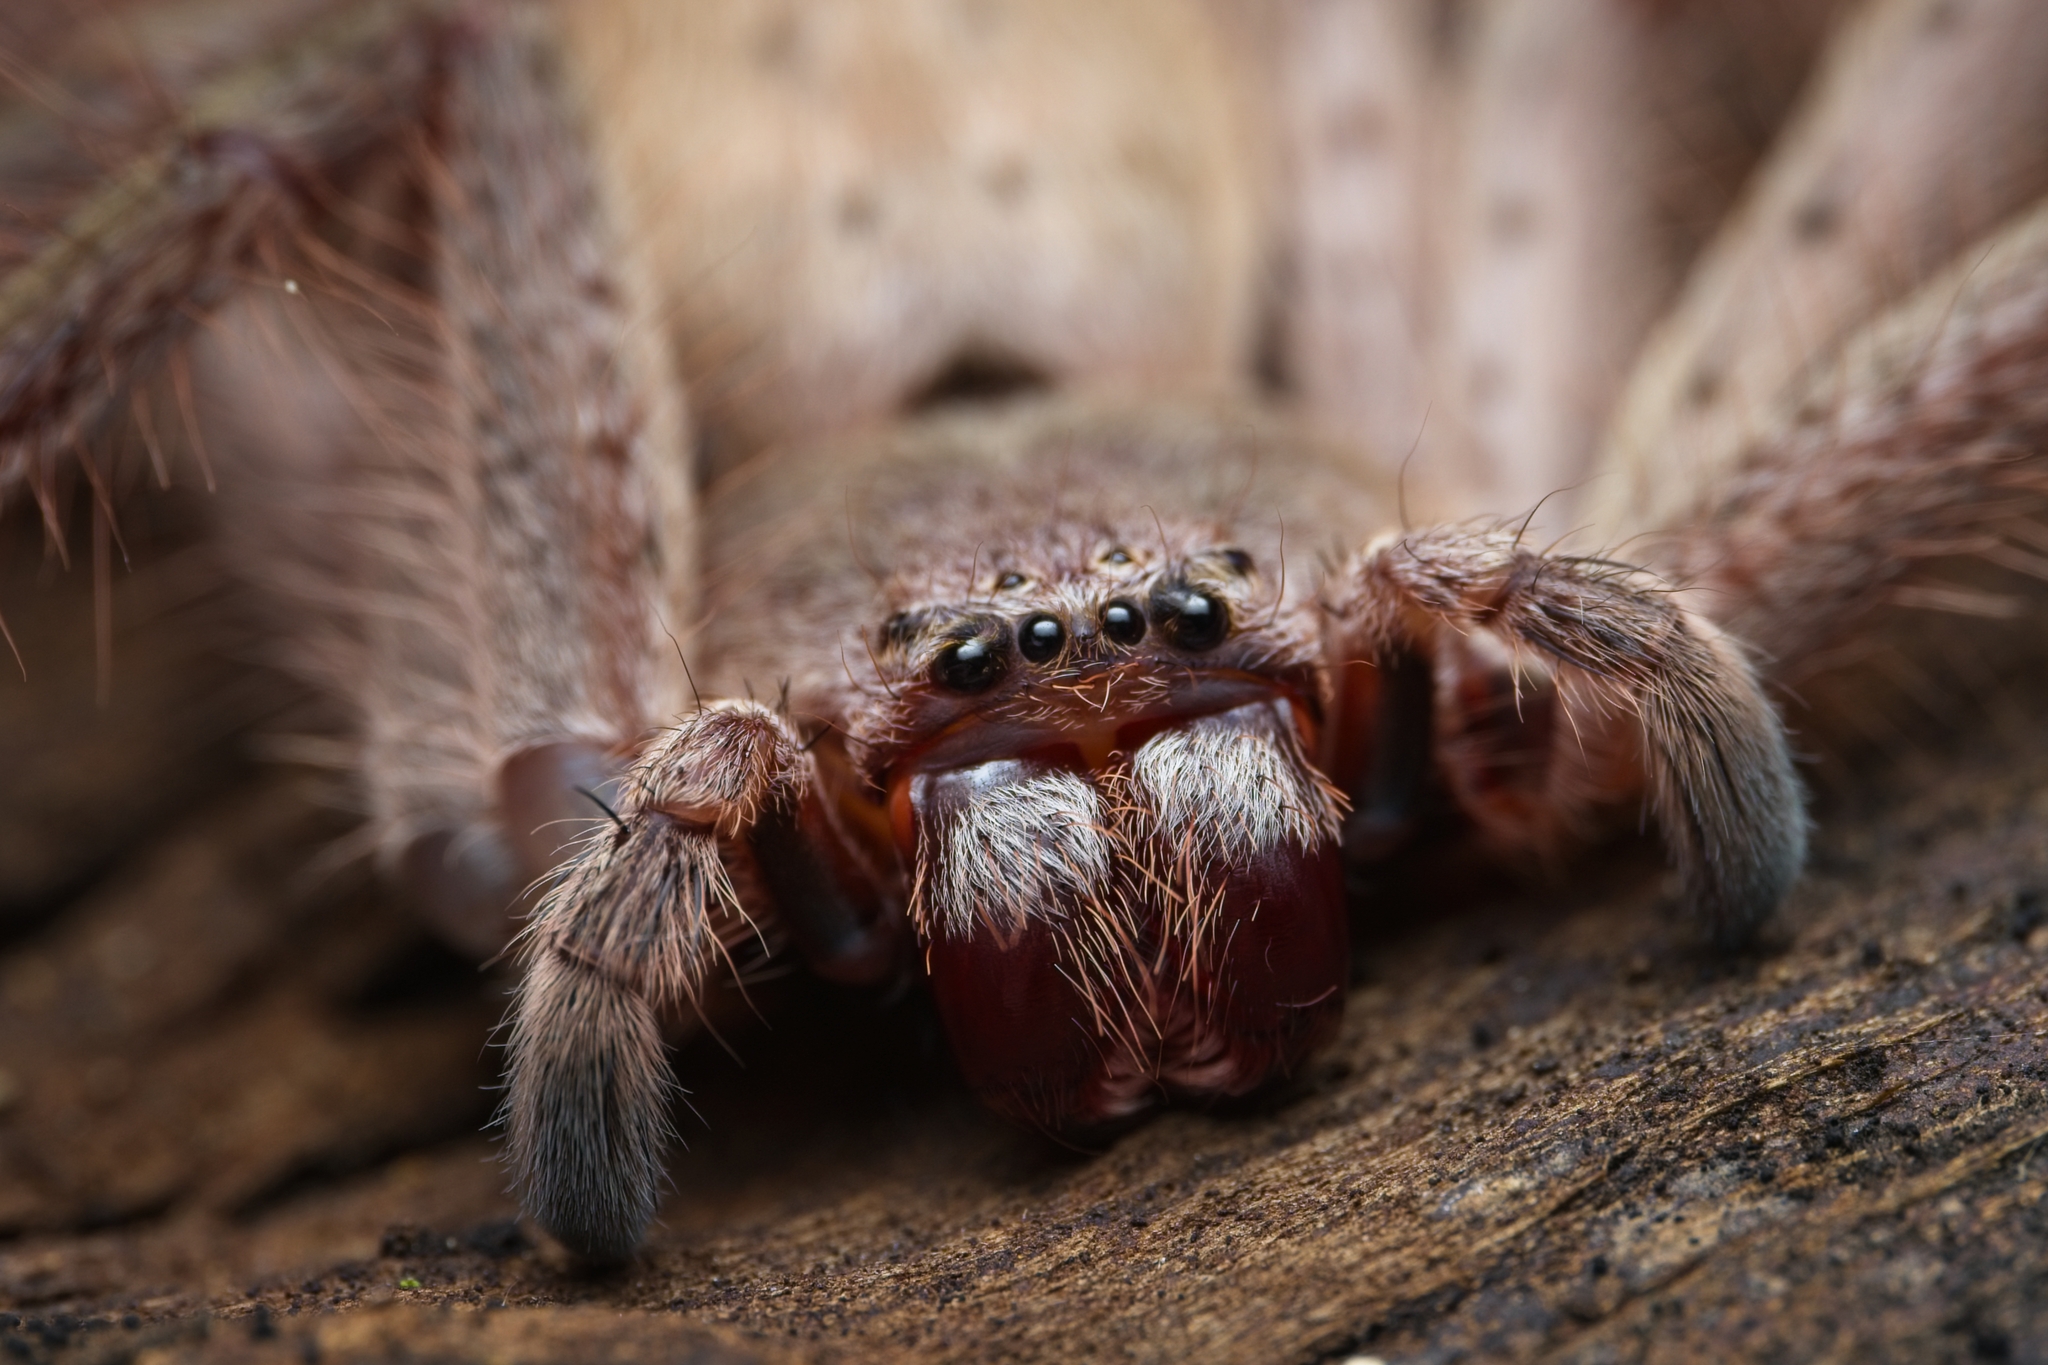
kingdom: Animalia
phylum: Arthropoda
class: Arachnida
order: Araneae
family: Sparassidae
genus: Isopeda
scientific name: Isopeda villosa
